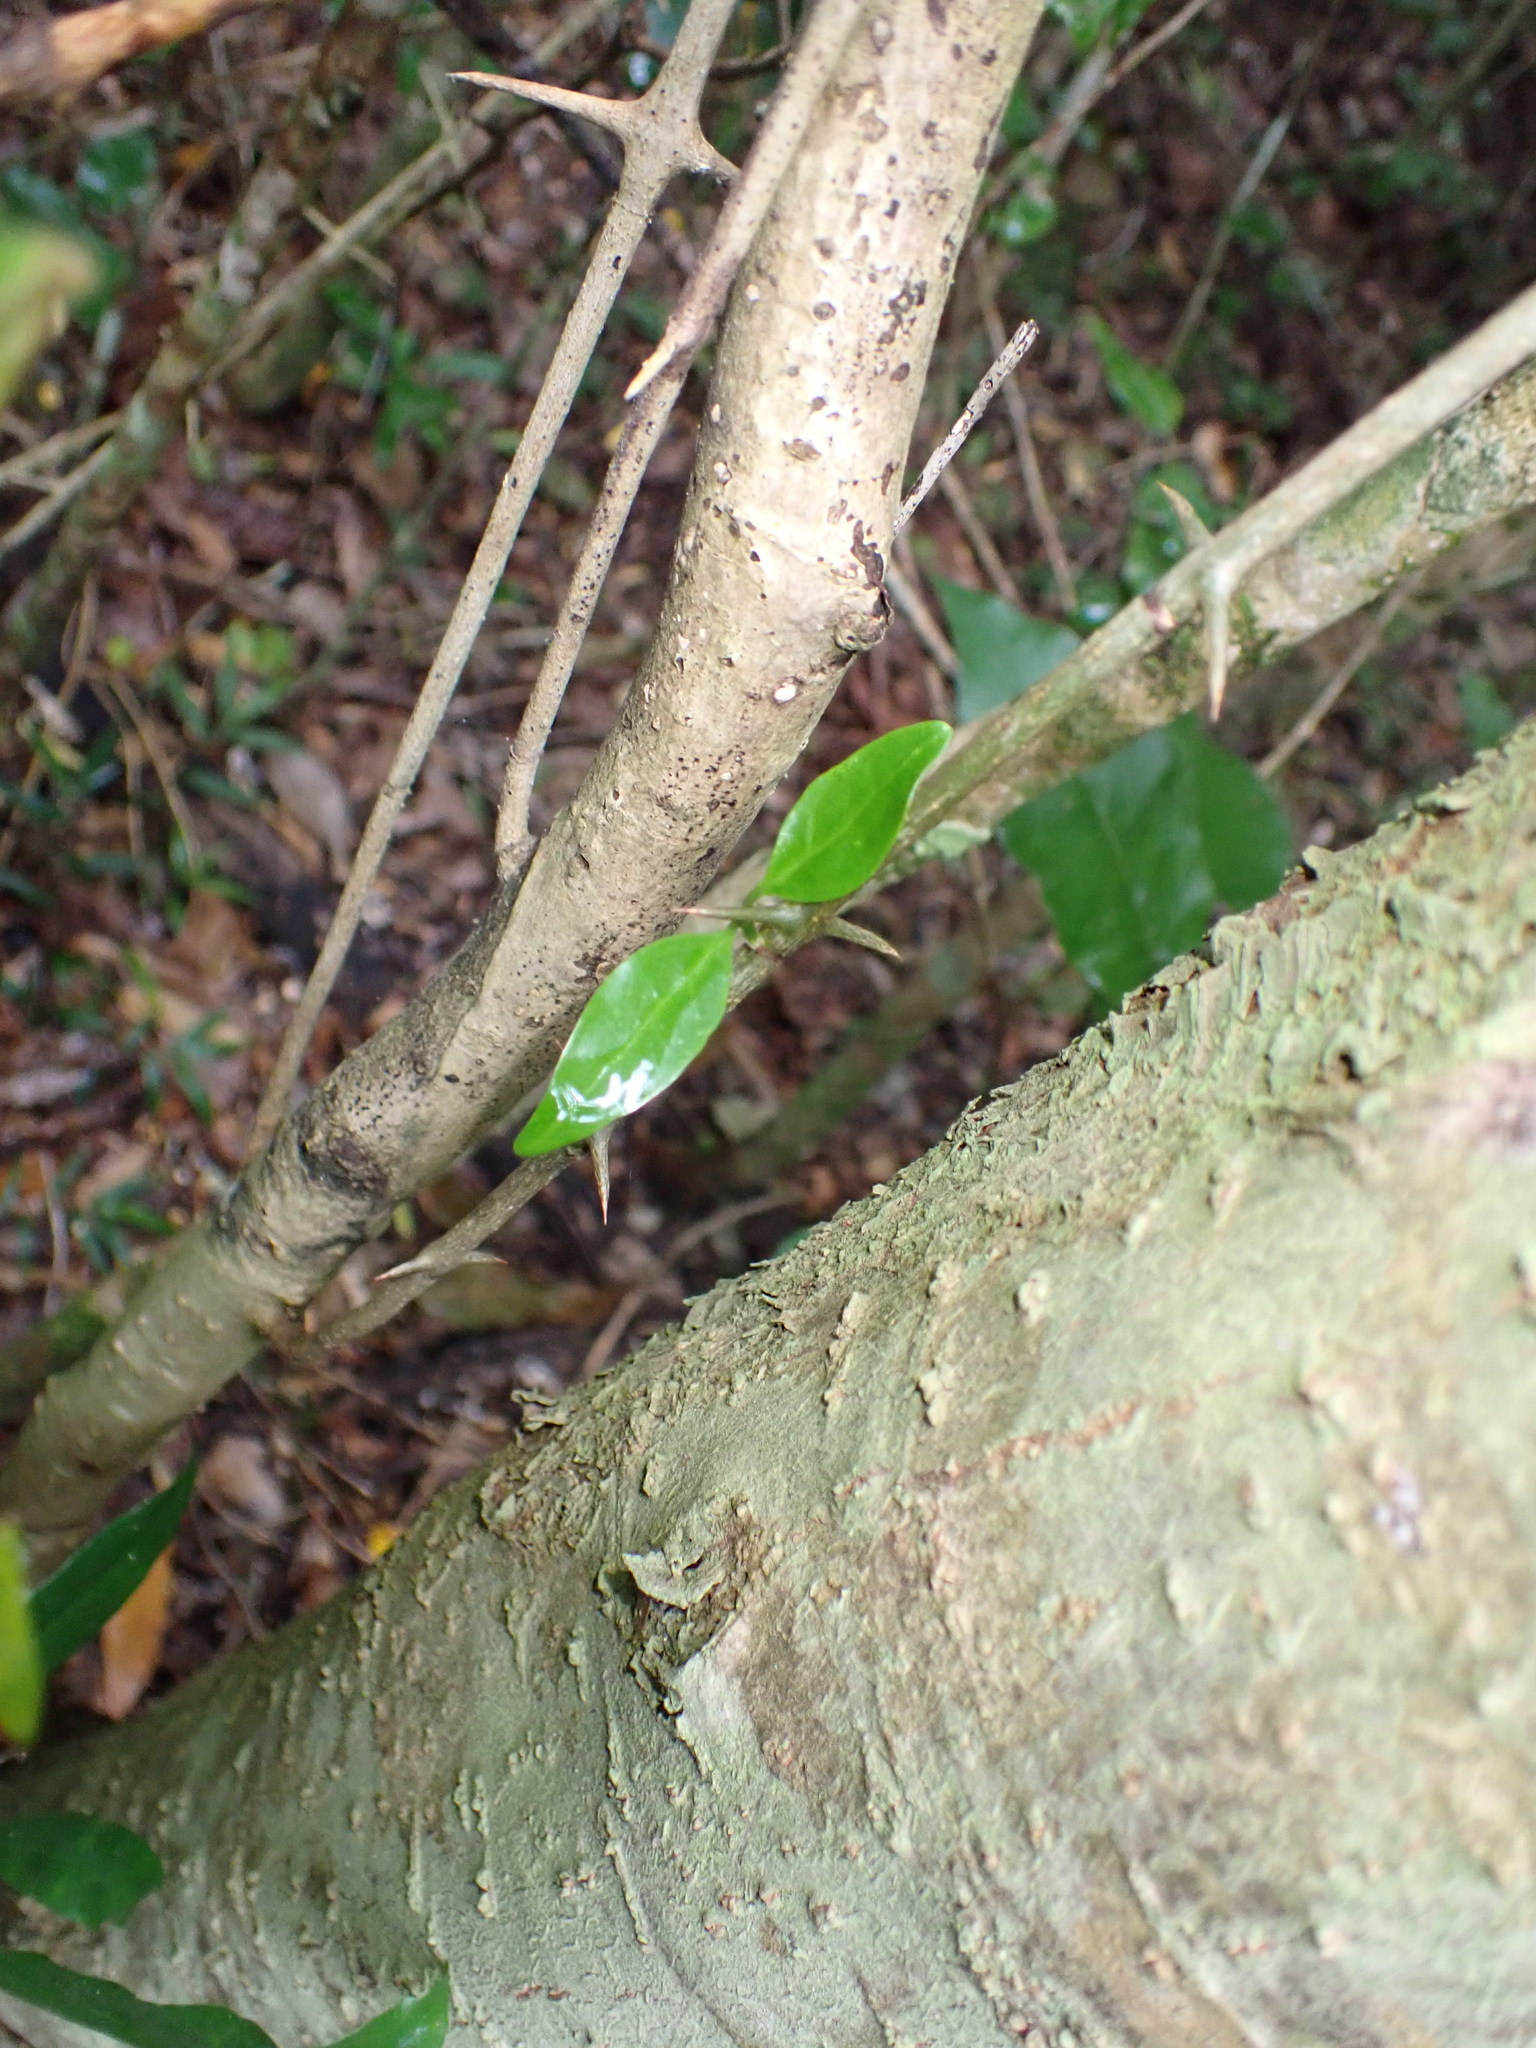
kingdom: Plantae
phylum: Tracheophyta
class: Magnoliopsida
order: Gentianales
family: Rubiaceae
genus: Canthium
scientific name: Canthium inerme
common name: Unarmed turkey-berry
